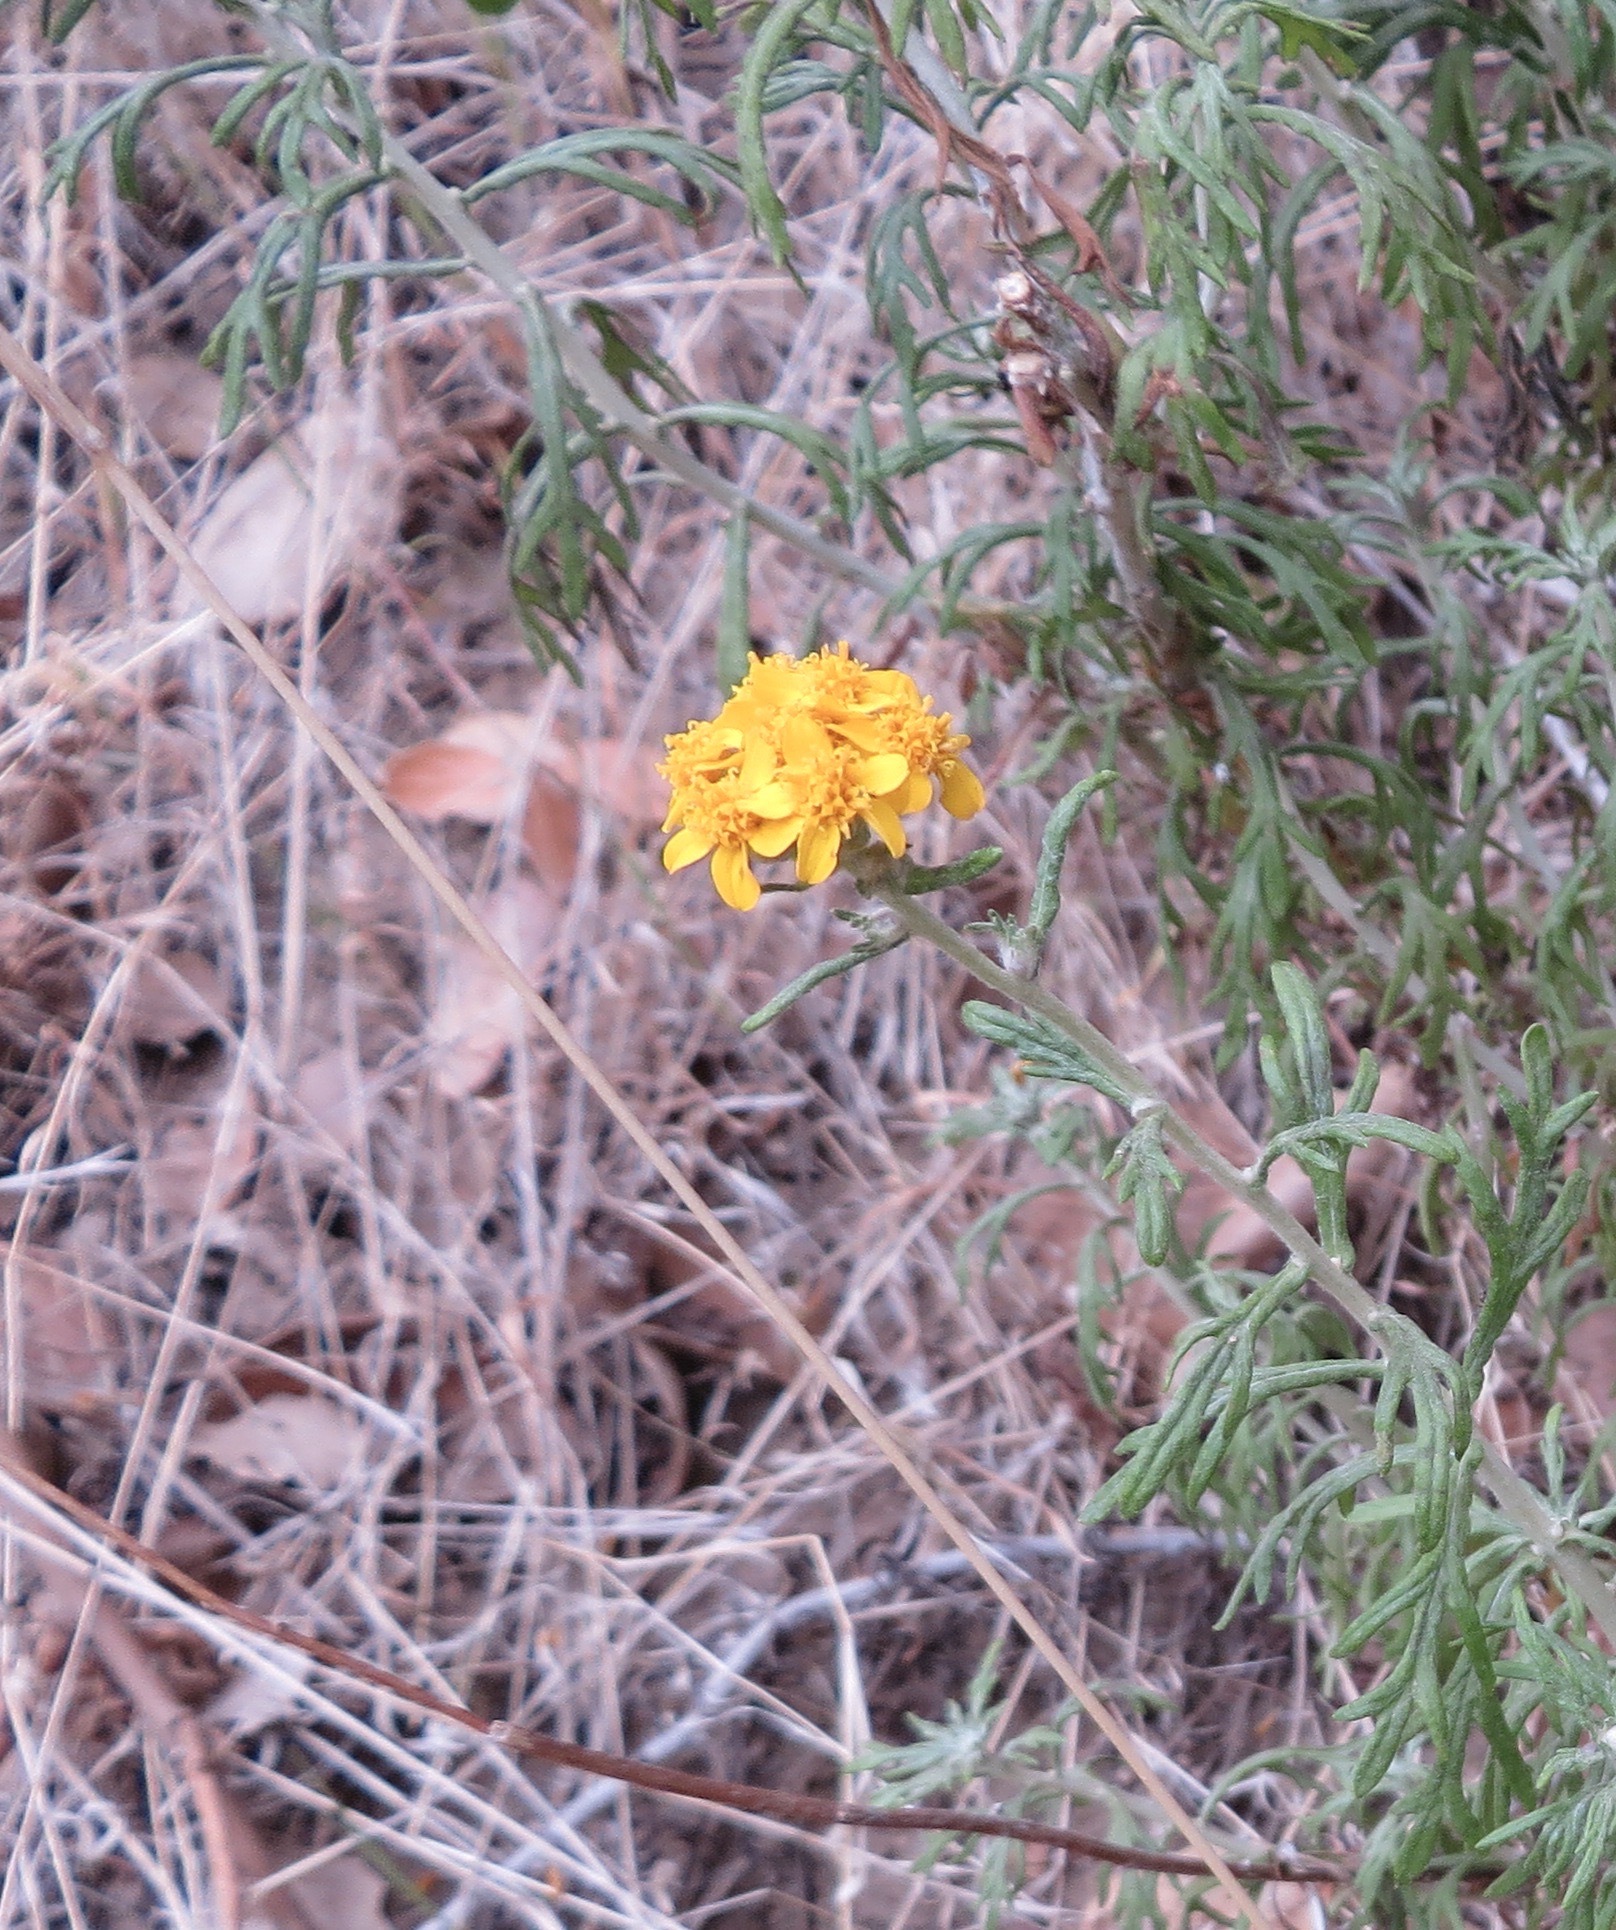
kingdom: Plantae
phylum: Tracheophyta
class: Magnoliopsida
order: Asterales
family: Asteraceae
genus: Eriophyllum
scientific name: Eriophyllum confertiflorum
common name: Golden-yarrow
